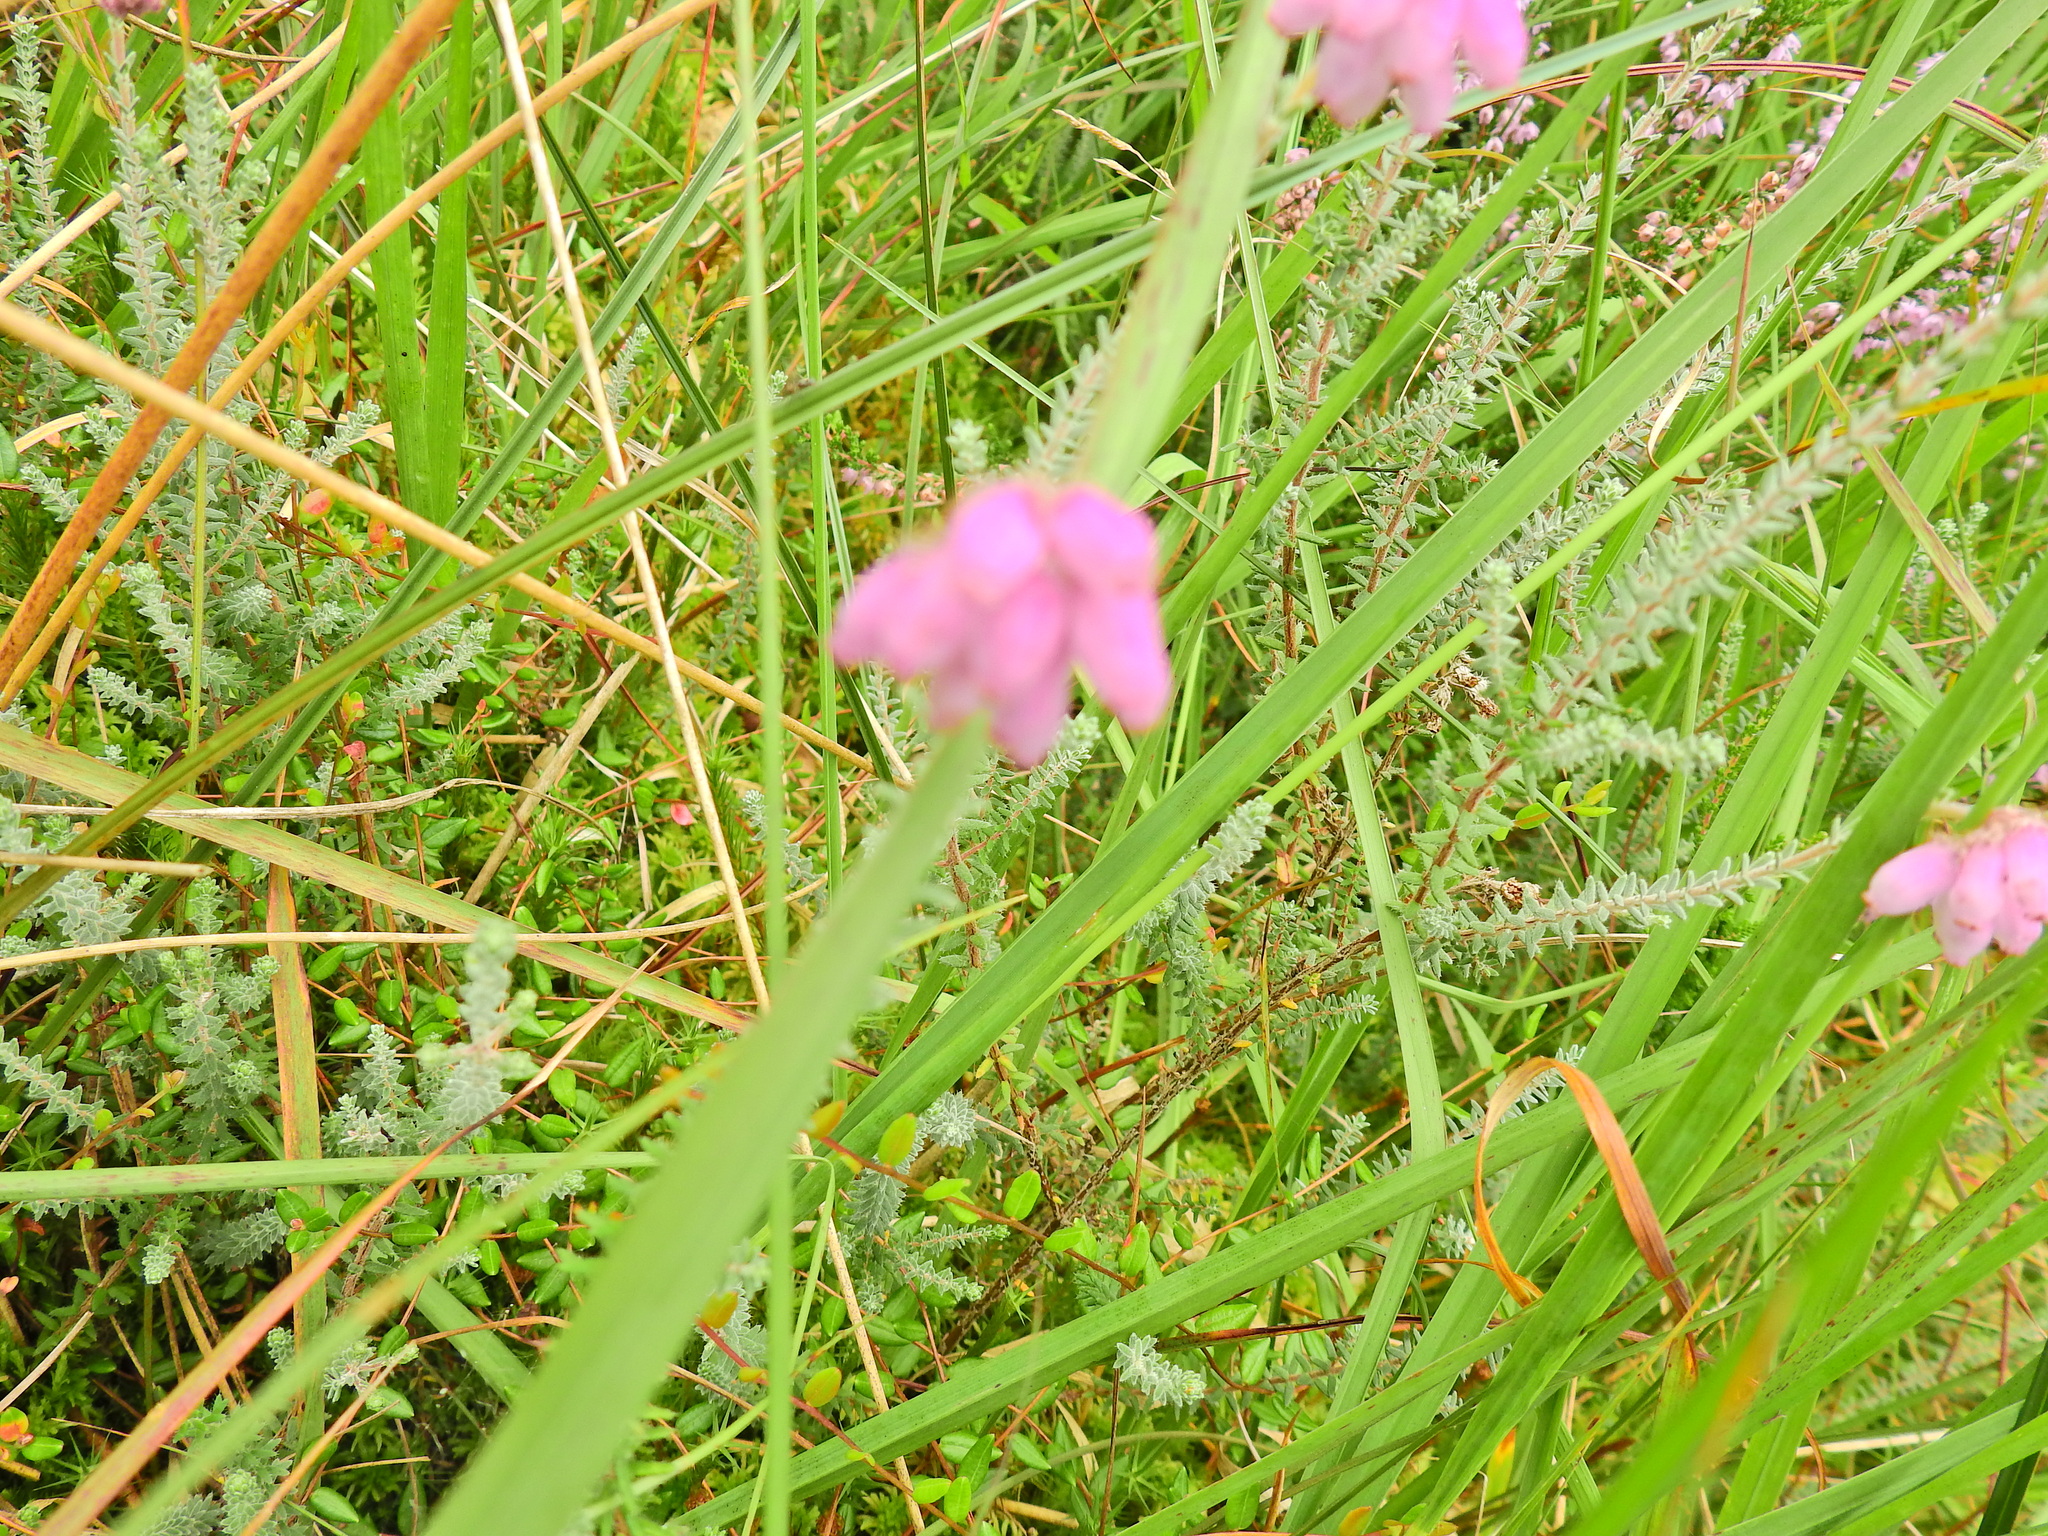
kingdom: Plantae
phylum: Tracheophyta
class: Magnoliopsida
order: Ericales
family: Ericaceae
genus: Erica
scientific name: Erica tetralix
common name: Cross-leaved heath
